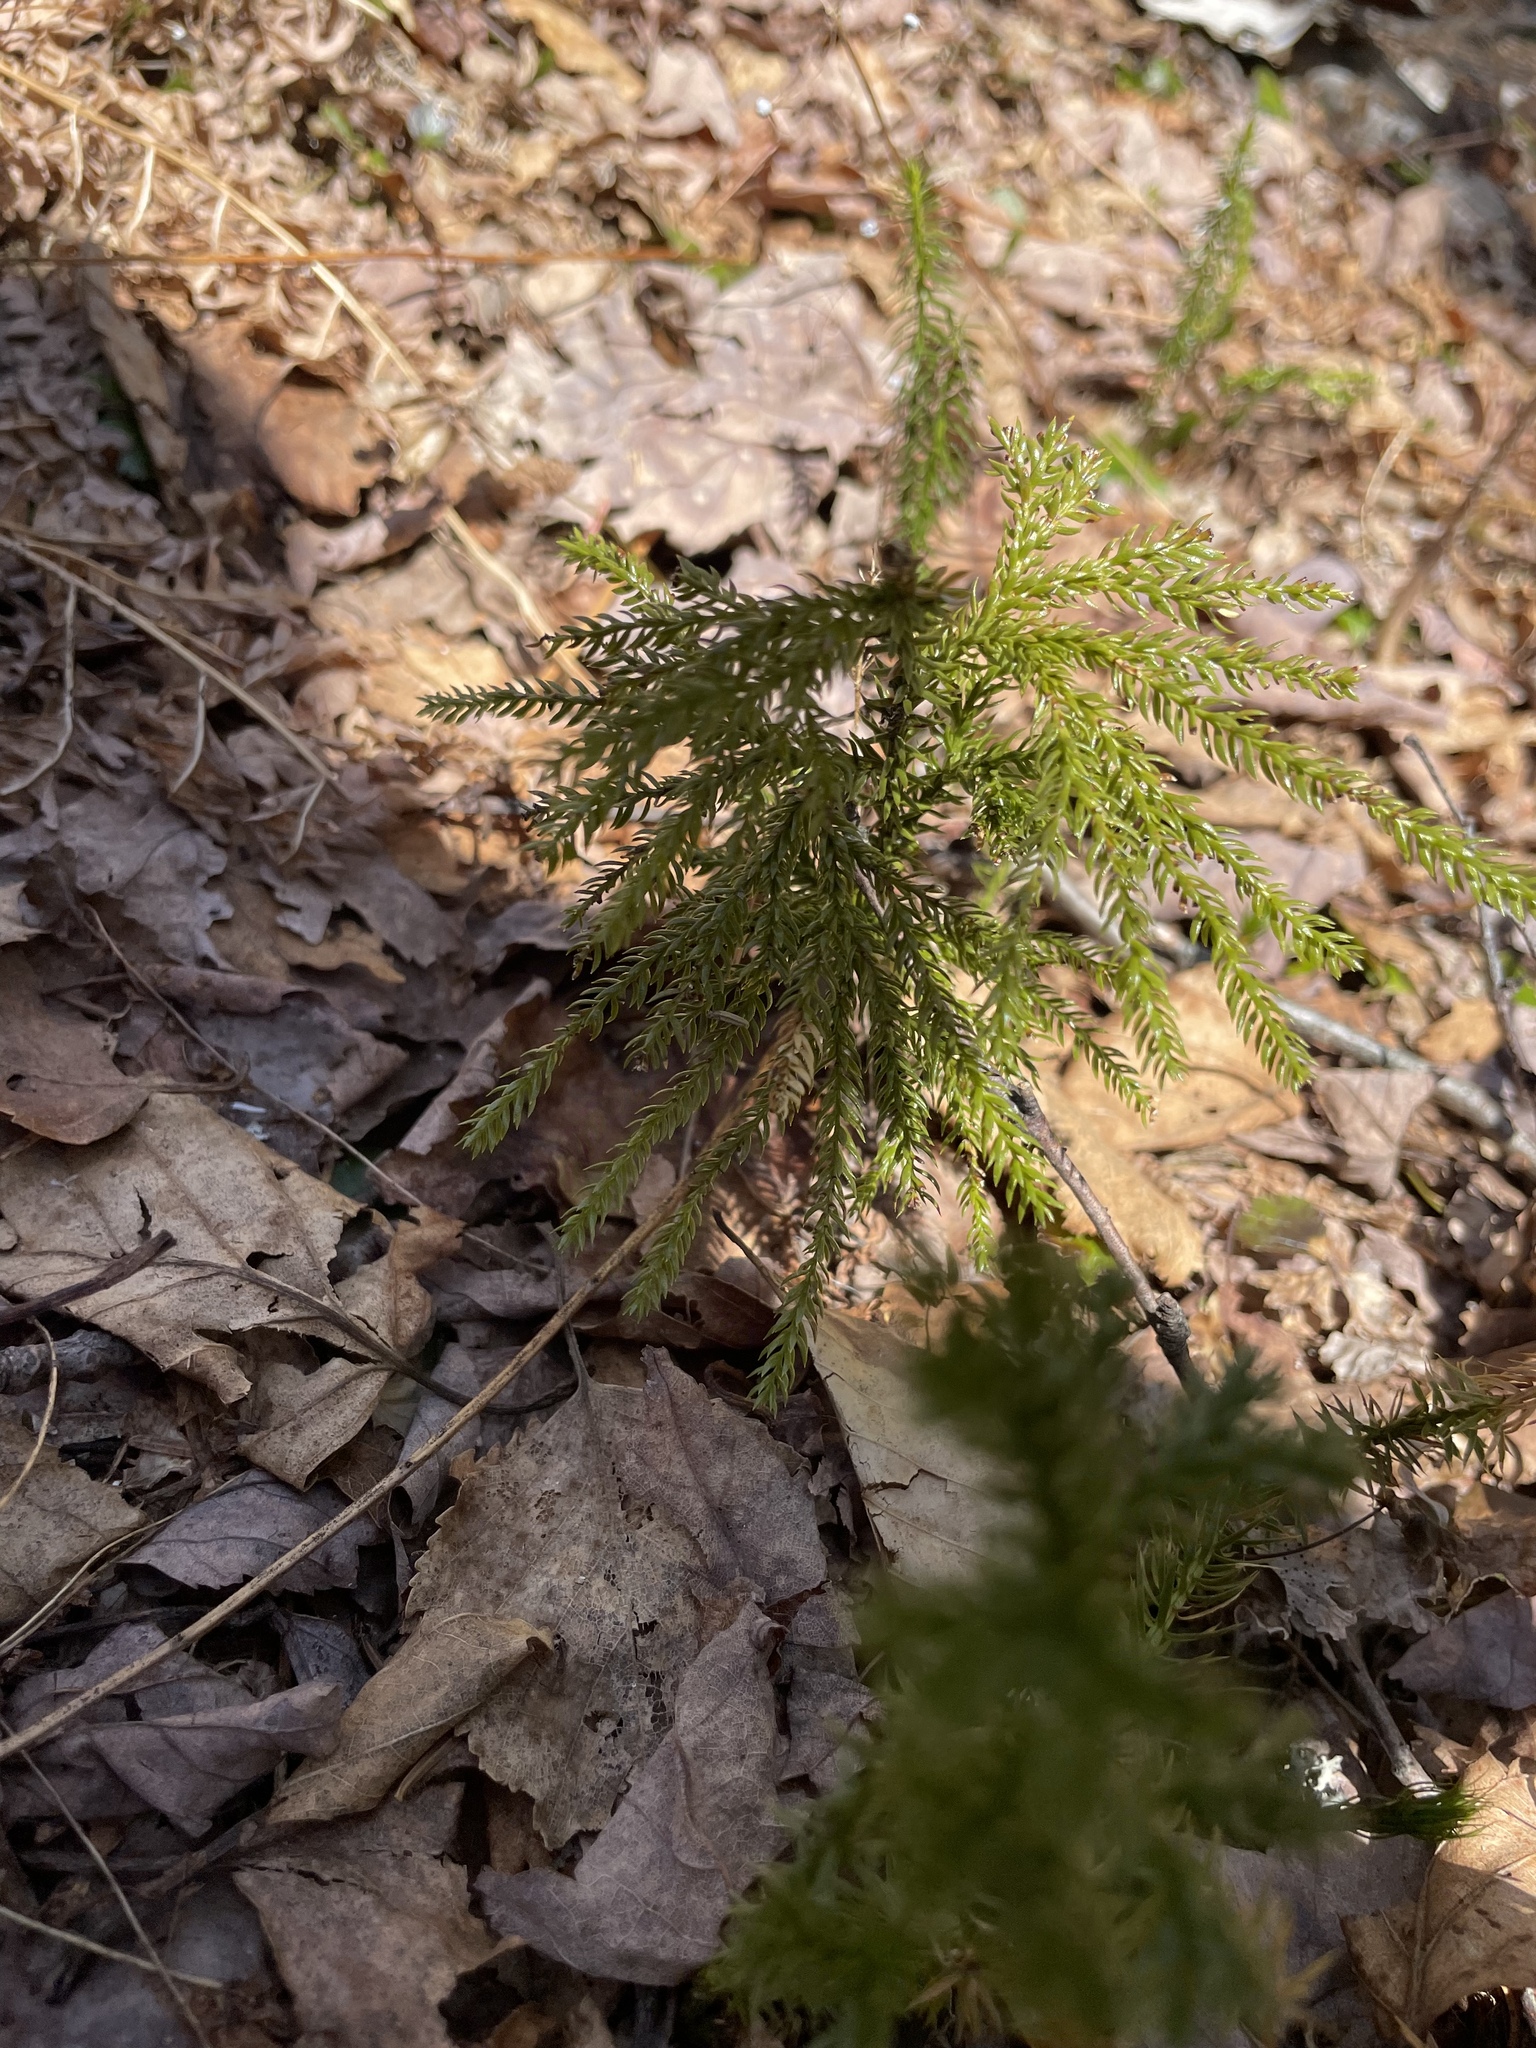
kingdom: Plantae
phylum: Tracheophyta
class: Lycopodiopsida
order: Lycopodiales
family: Lycopodiaceae
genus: Dendrolycopodium
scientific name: Dendrolycopodium obscurum
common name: Common ground-pine
